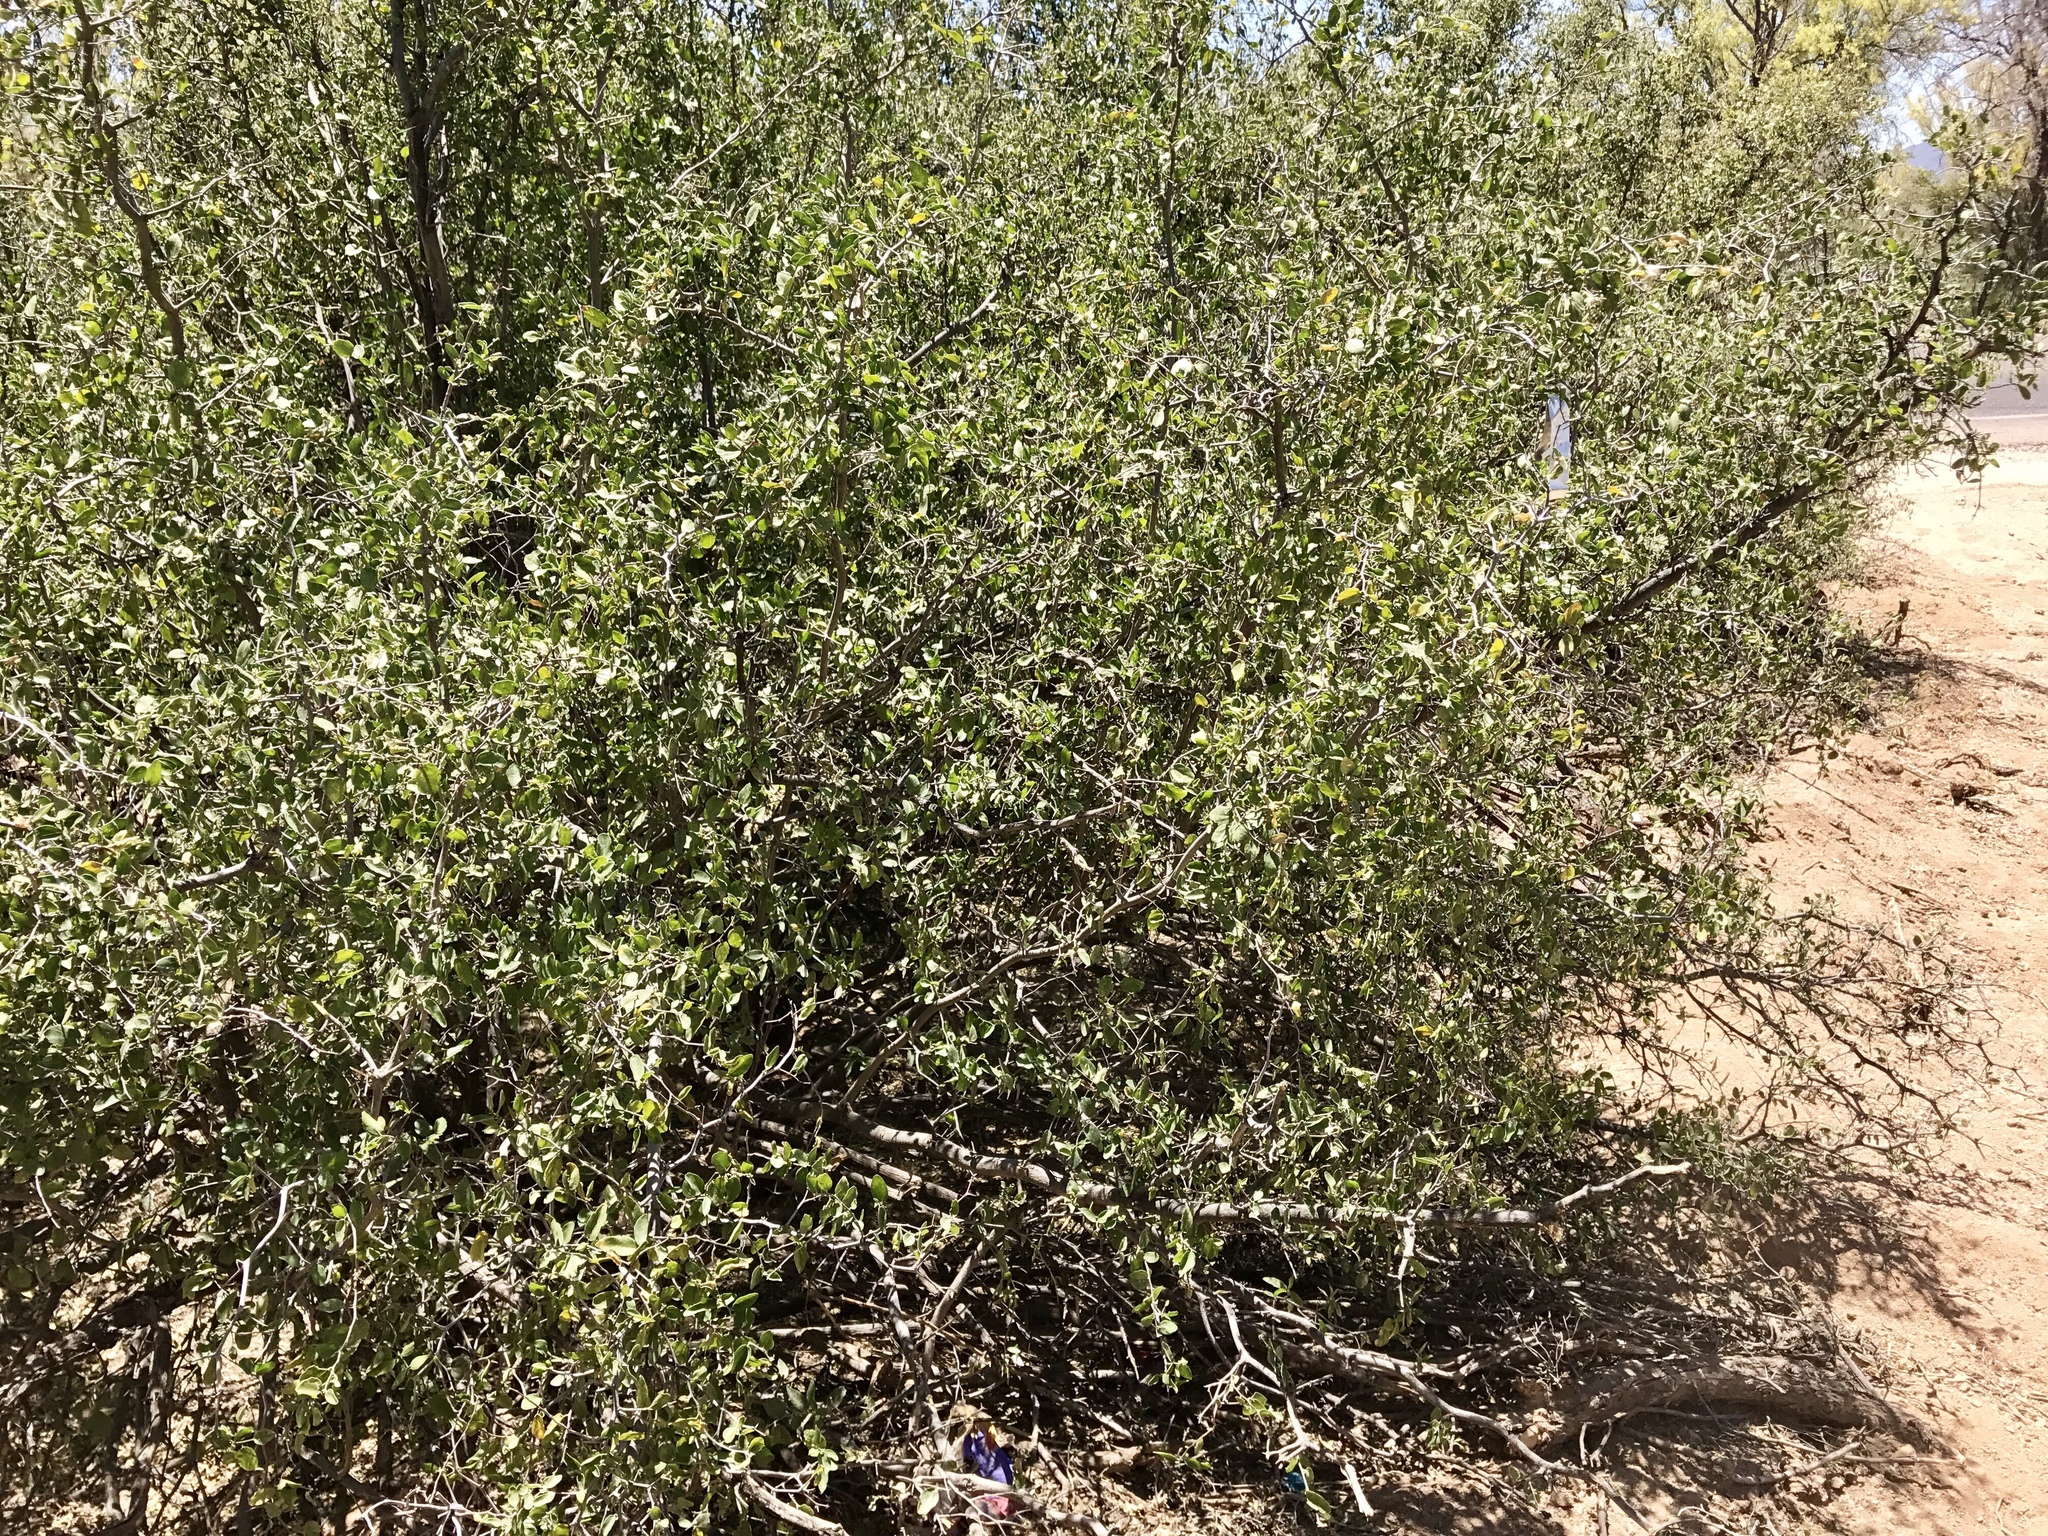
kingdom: Plantae
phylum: Tracheophyta
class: Magnoliopsida
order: Rosales
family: Cannabaceae
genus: Celtis
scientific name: Celtis pallida
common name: Desert hackberry
